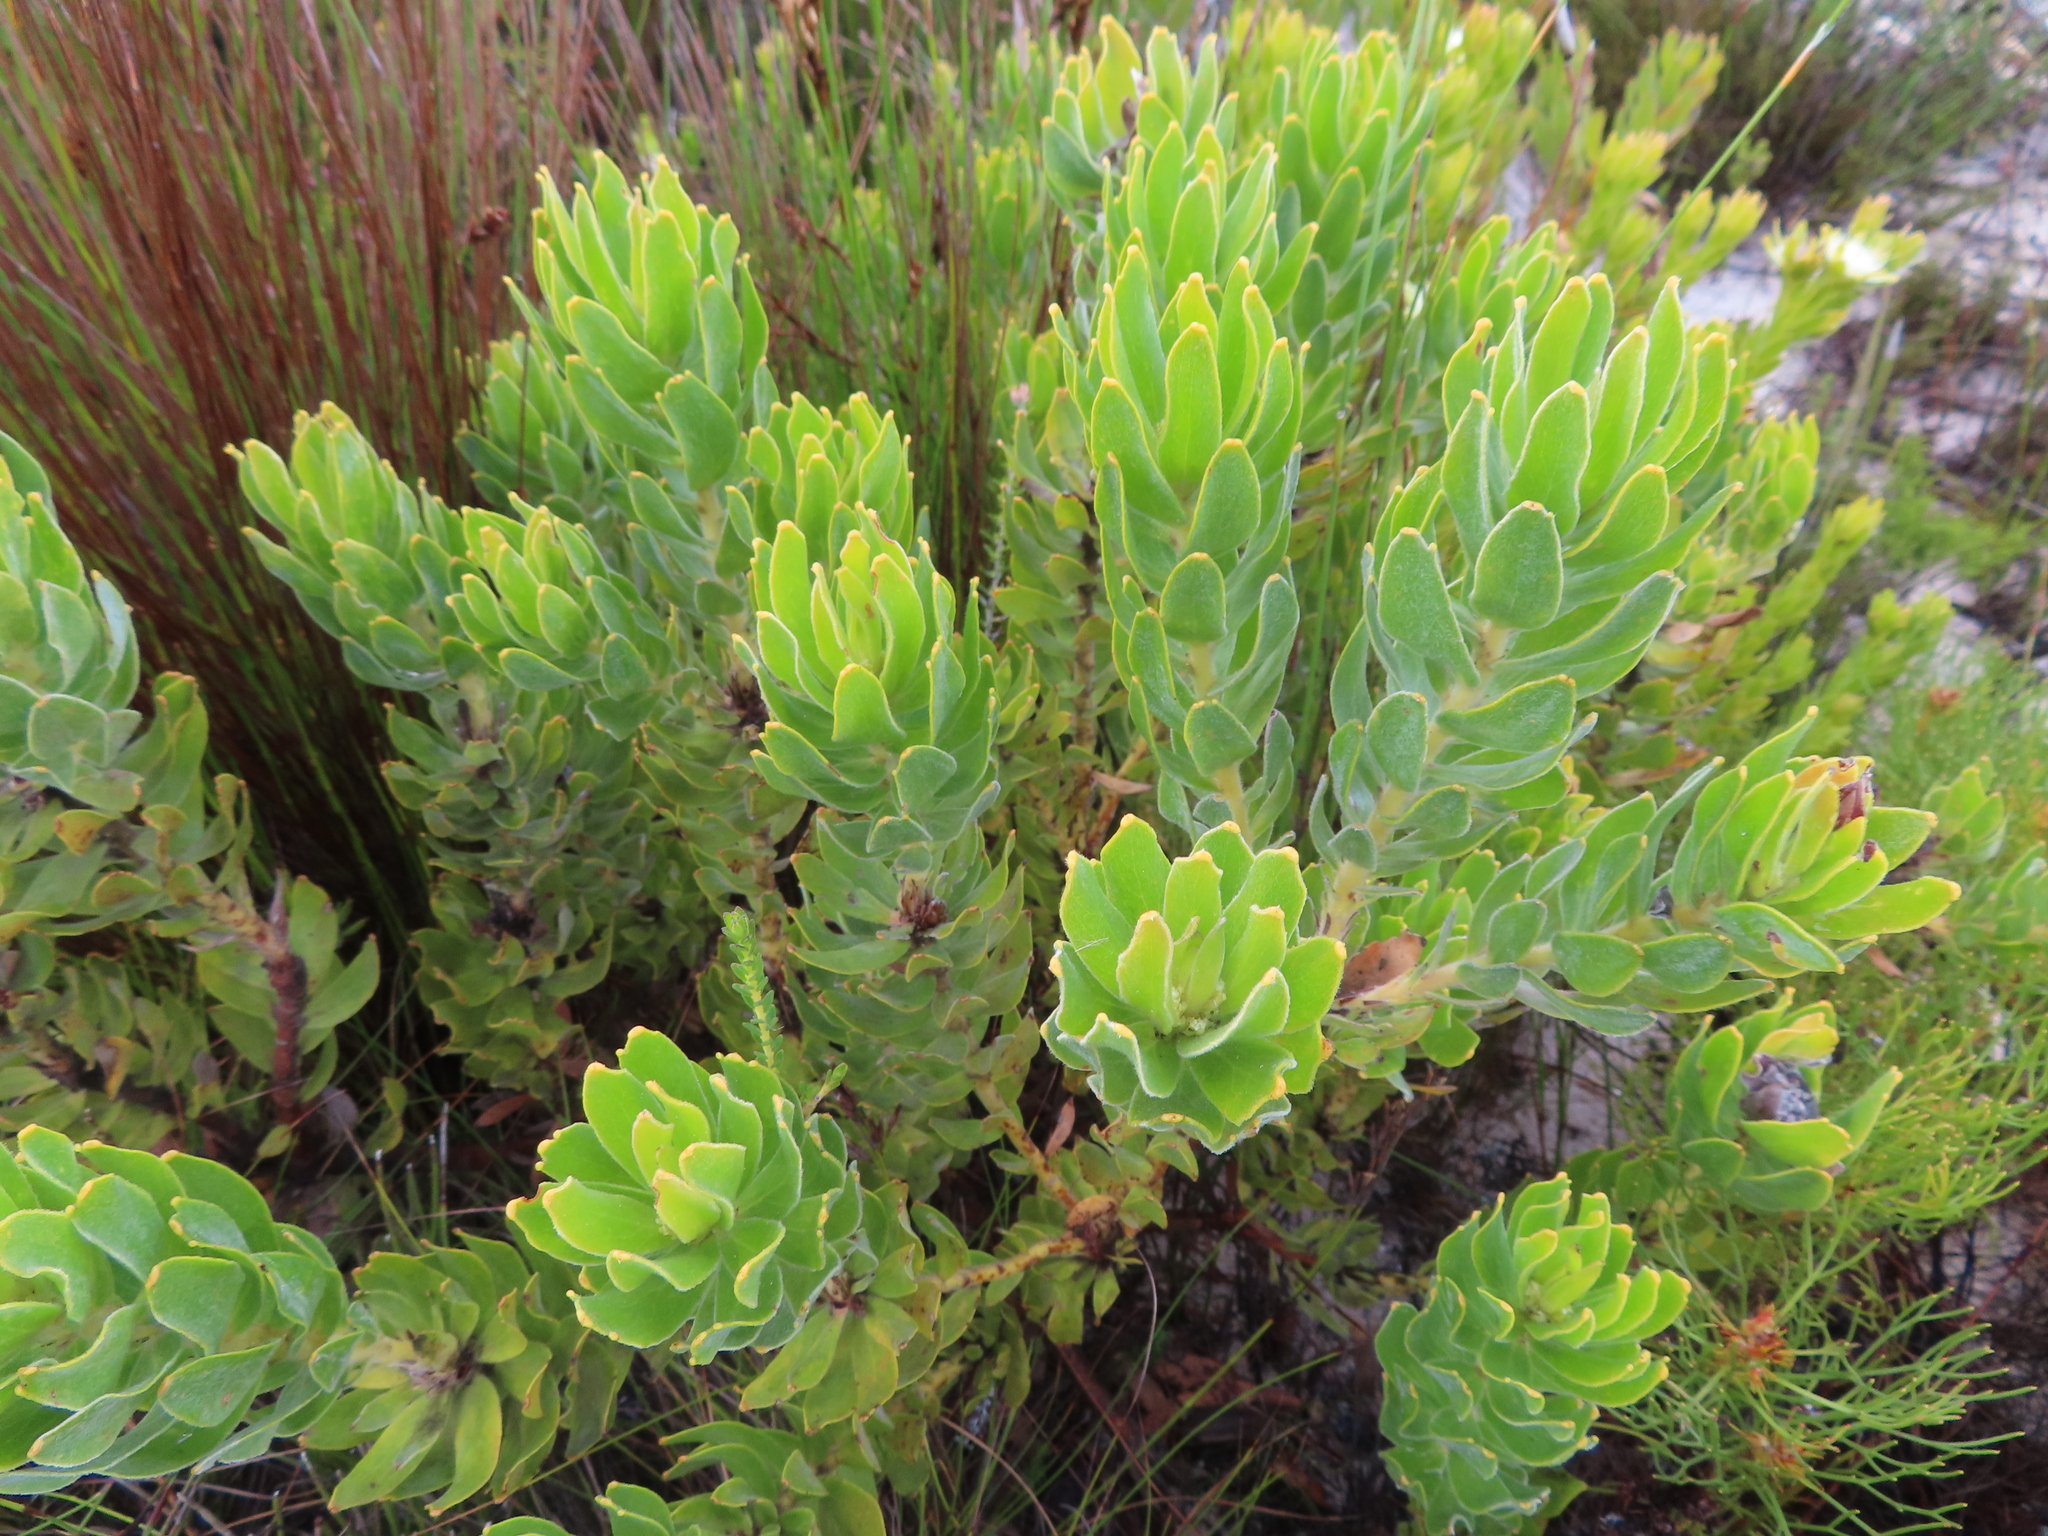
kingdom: Plantae
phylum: Tracheophyta
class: Magnoliopsida
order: Proteales
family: Proteaceae
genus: Leucospermum
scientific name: Leucospermum oleifolium
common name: Matches
